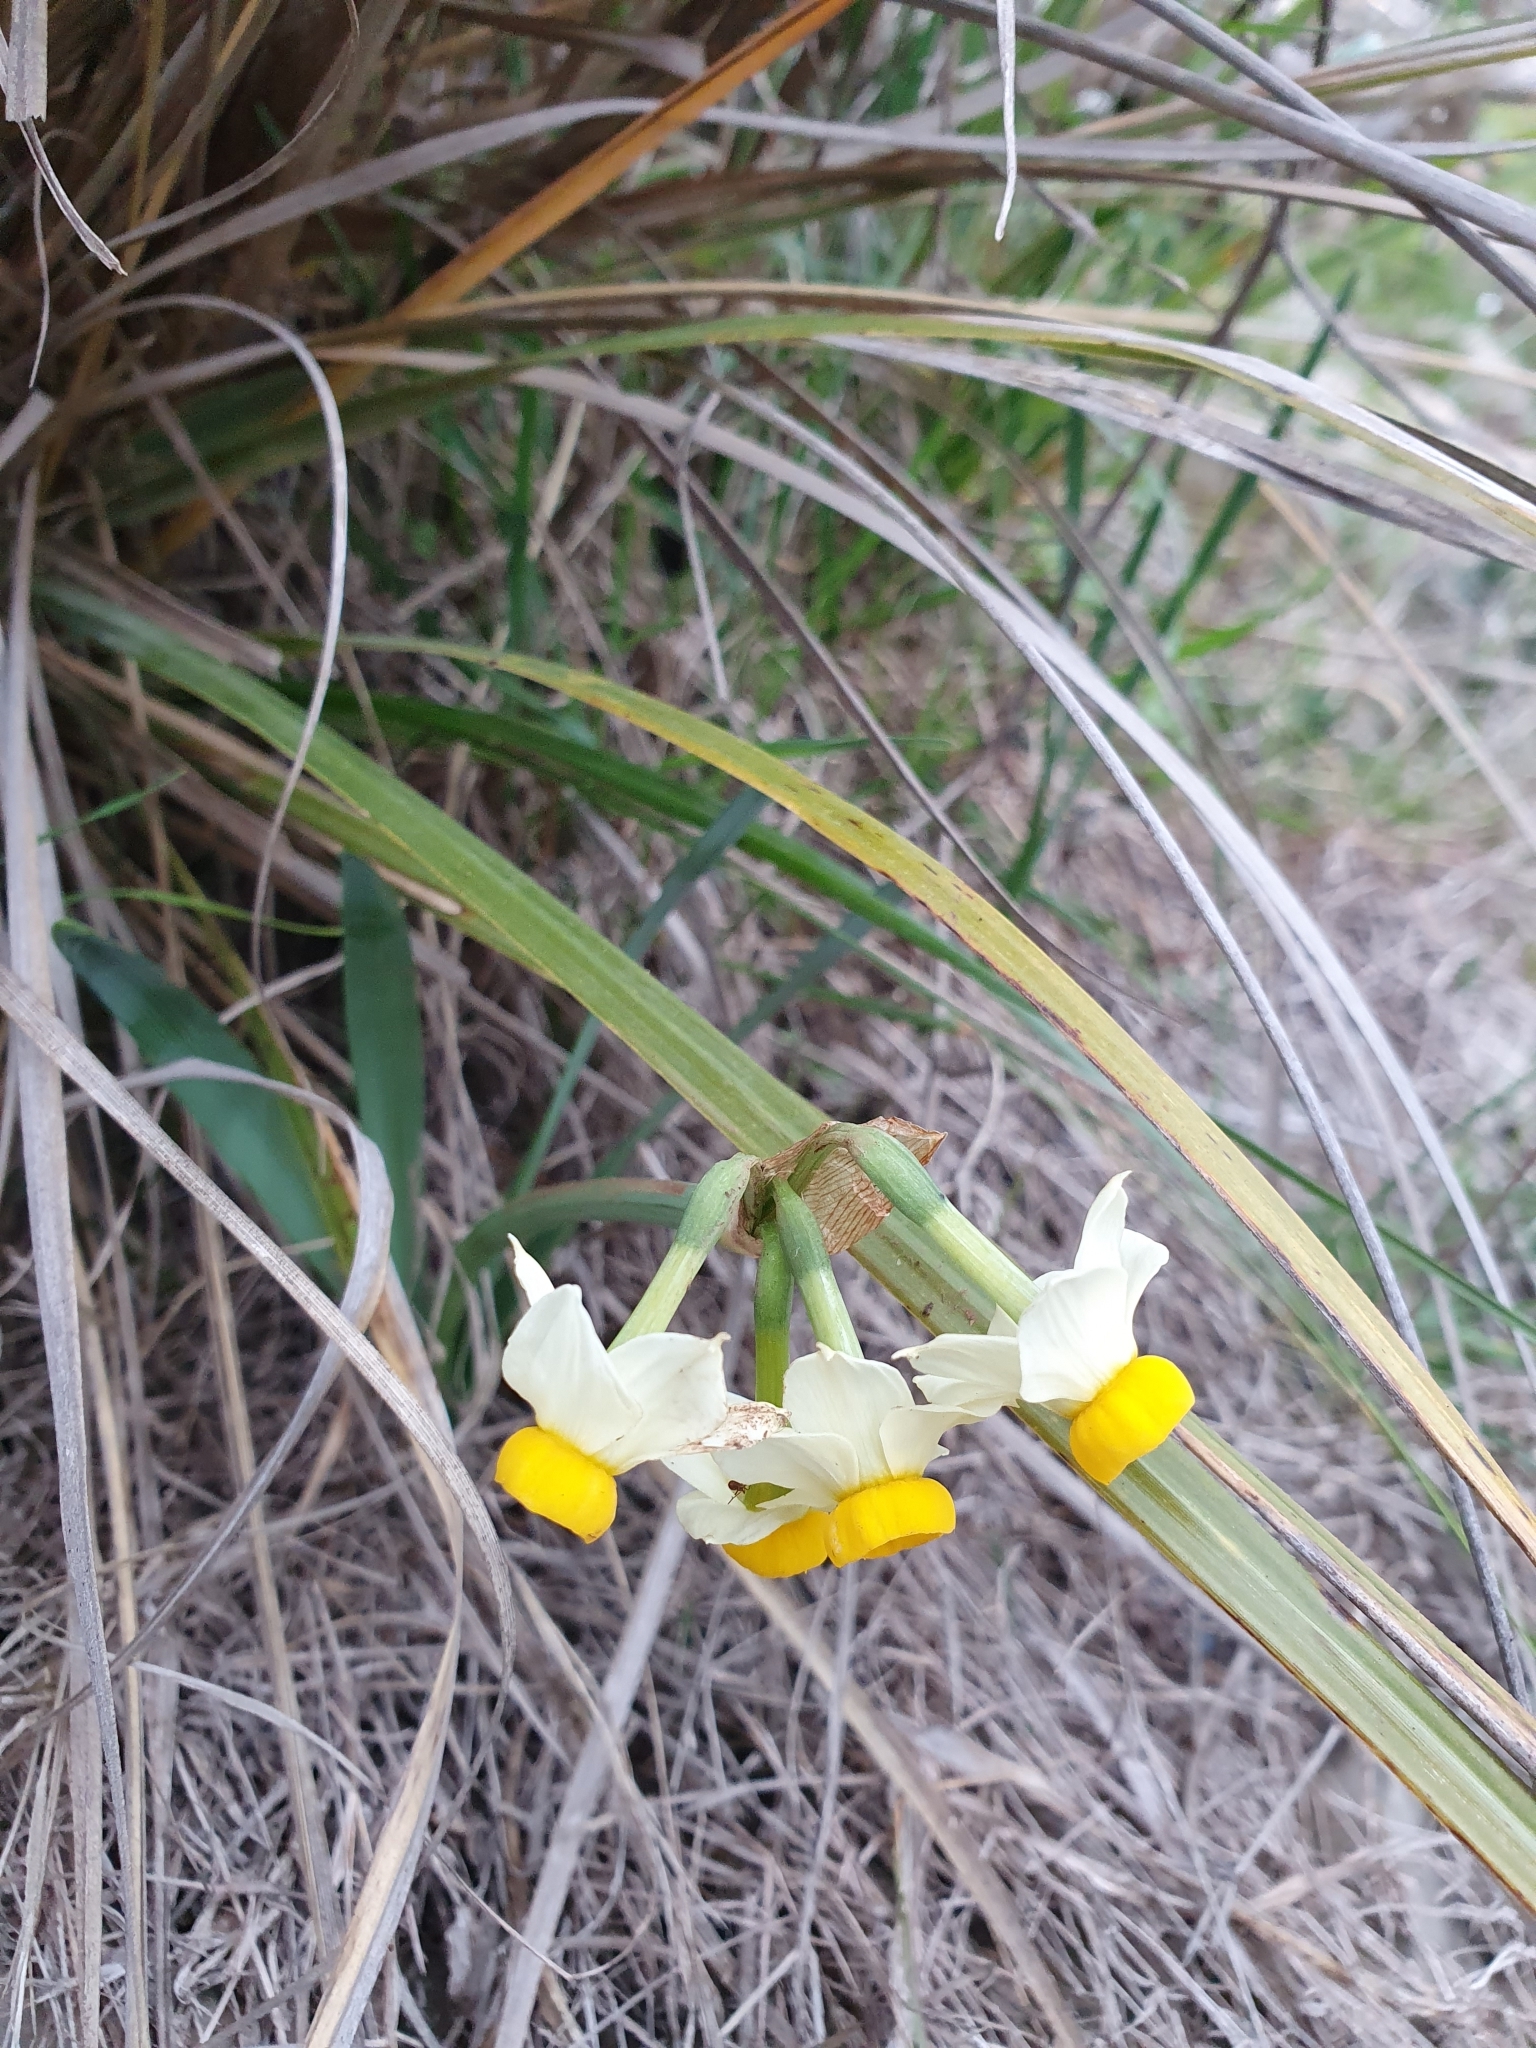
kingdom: Plantae
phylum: Tracheophyta
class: Liliopsida
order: Asparagales
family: Amaryllidaceae
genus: Narcissus
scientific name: Narcissus tazetta
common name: Bunch-flowered daffodil
